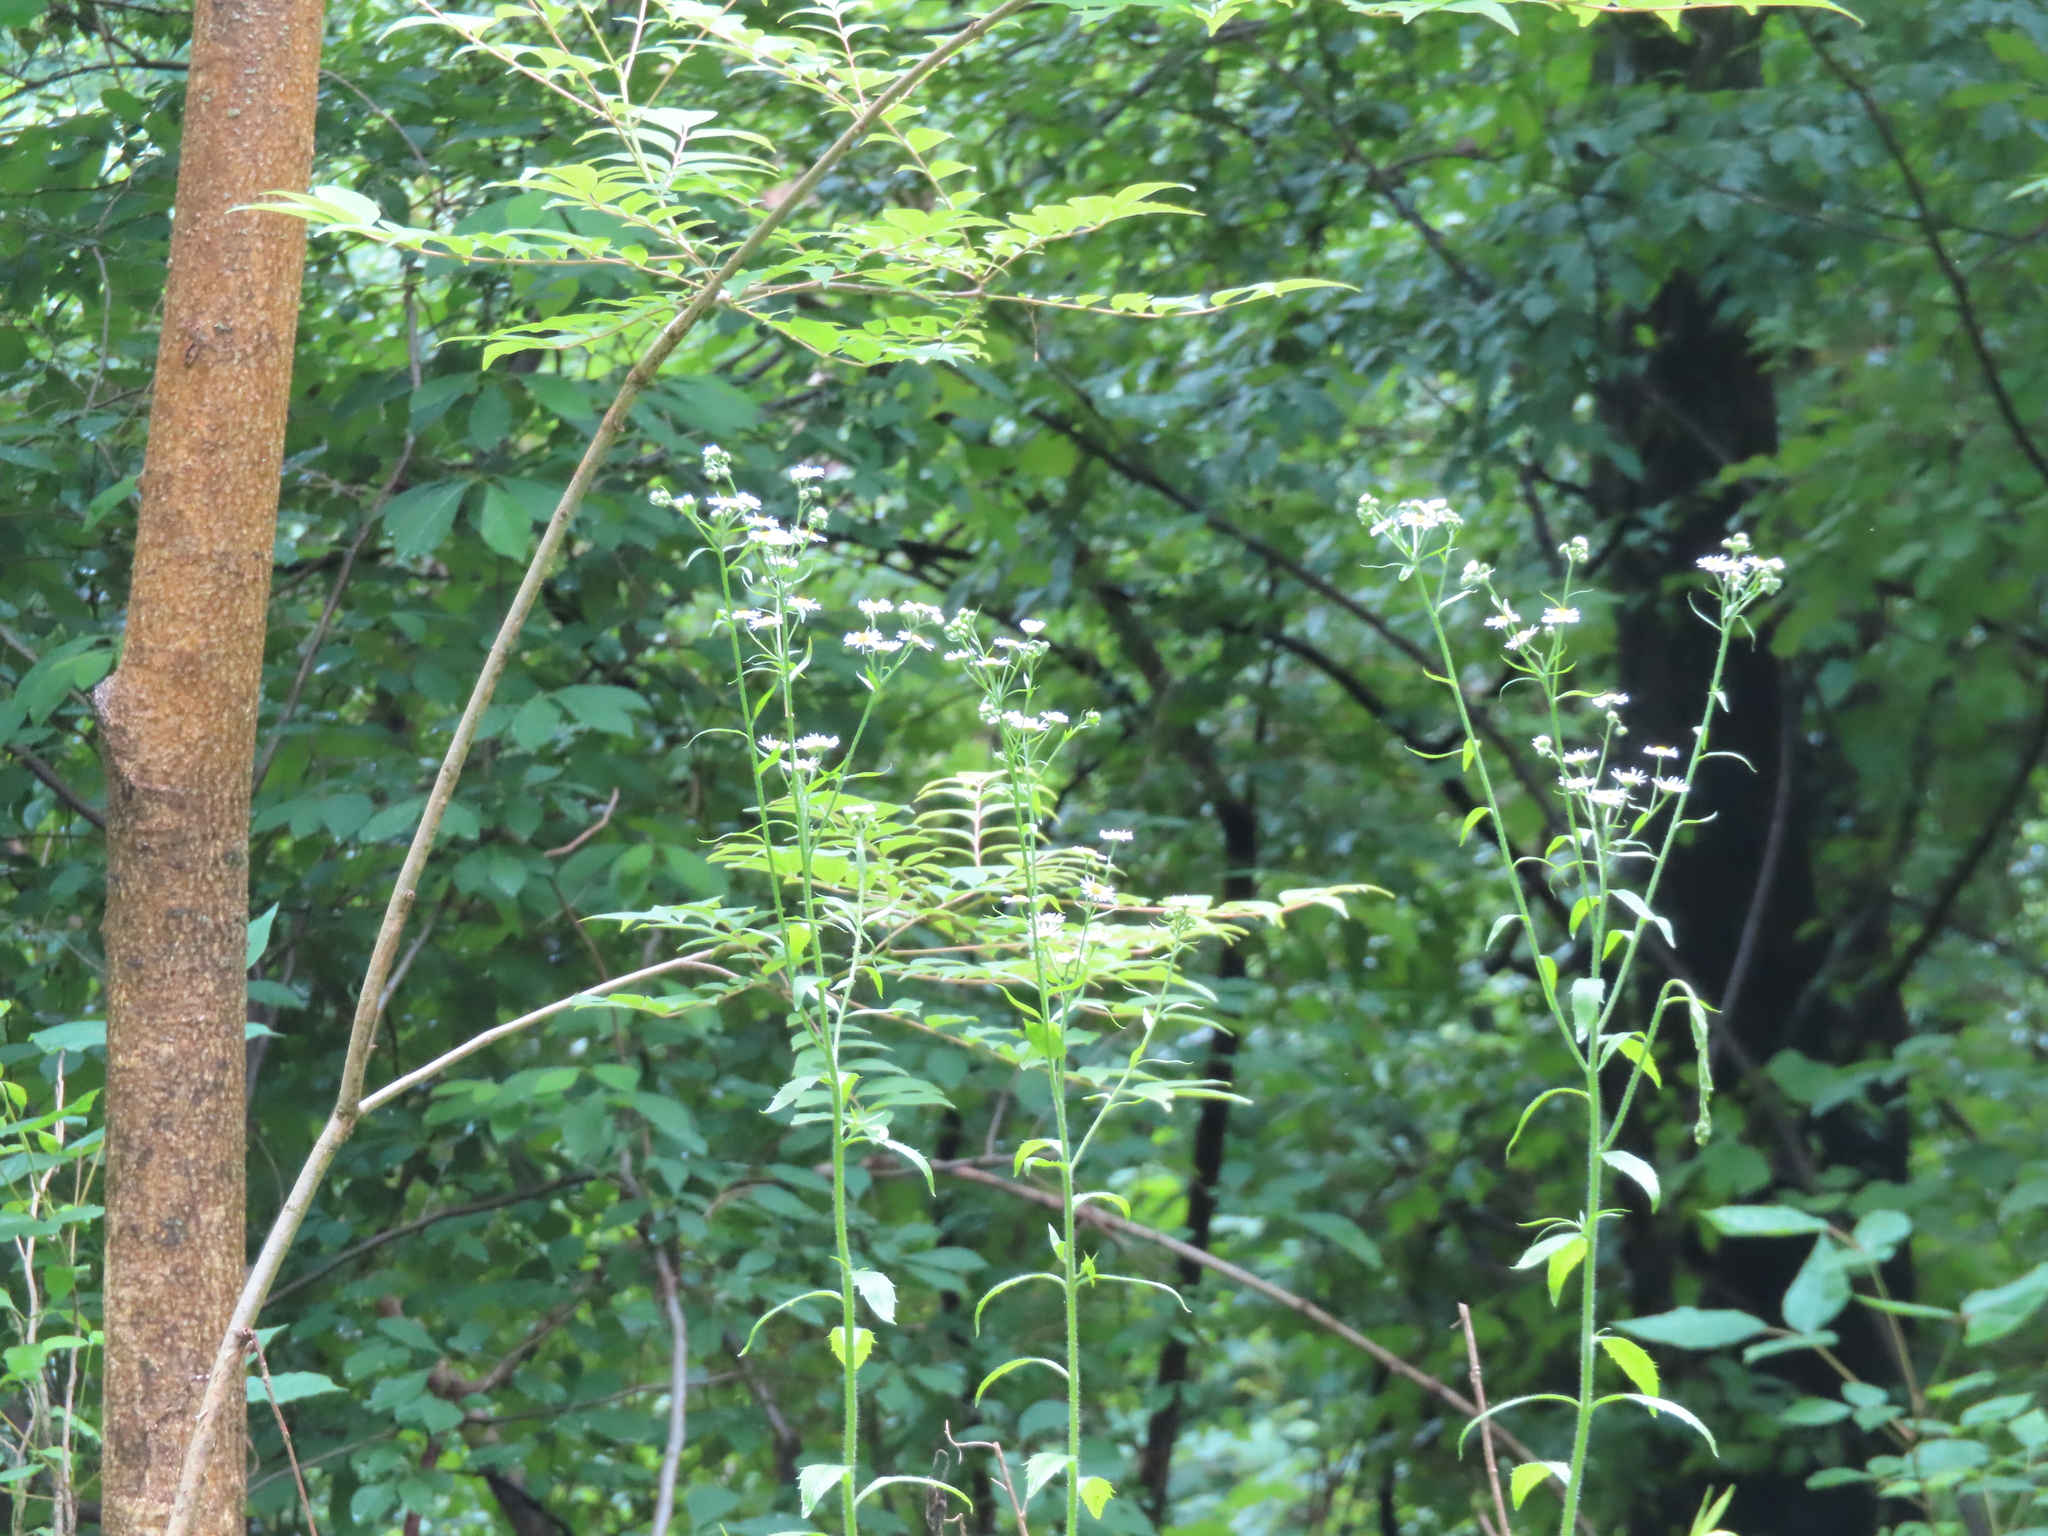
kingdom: Plantae
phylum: Tracheophyta
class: Magnoliopsida
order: Asterales
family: Asteraceae
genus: Erigeron
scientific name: Erigeron annuus
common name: Tall fleabane
